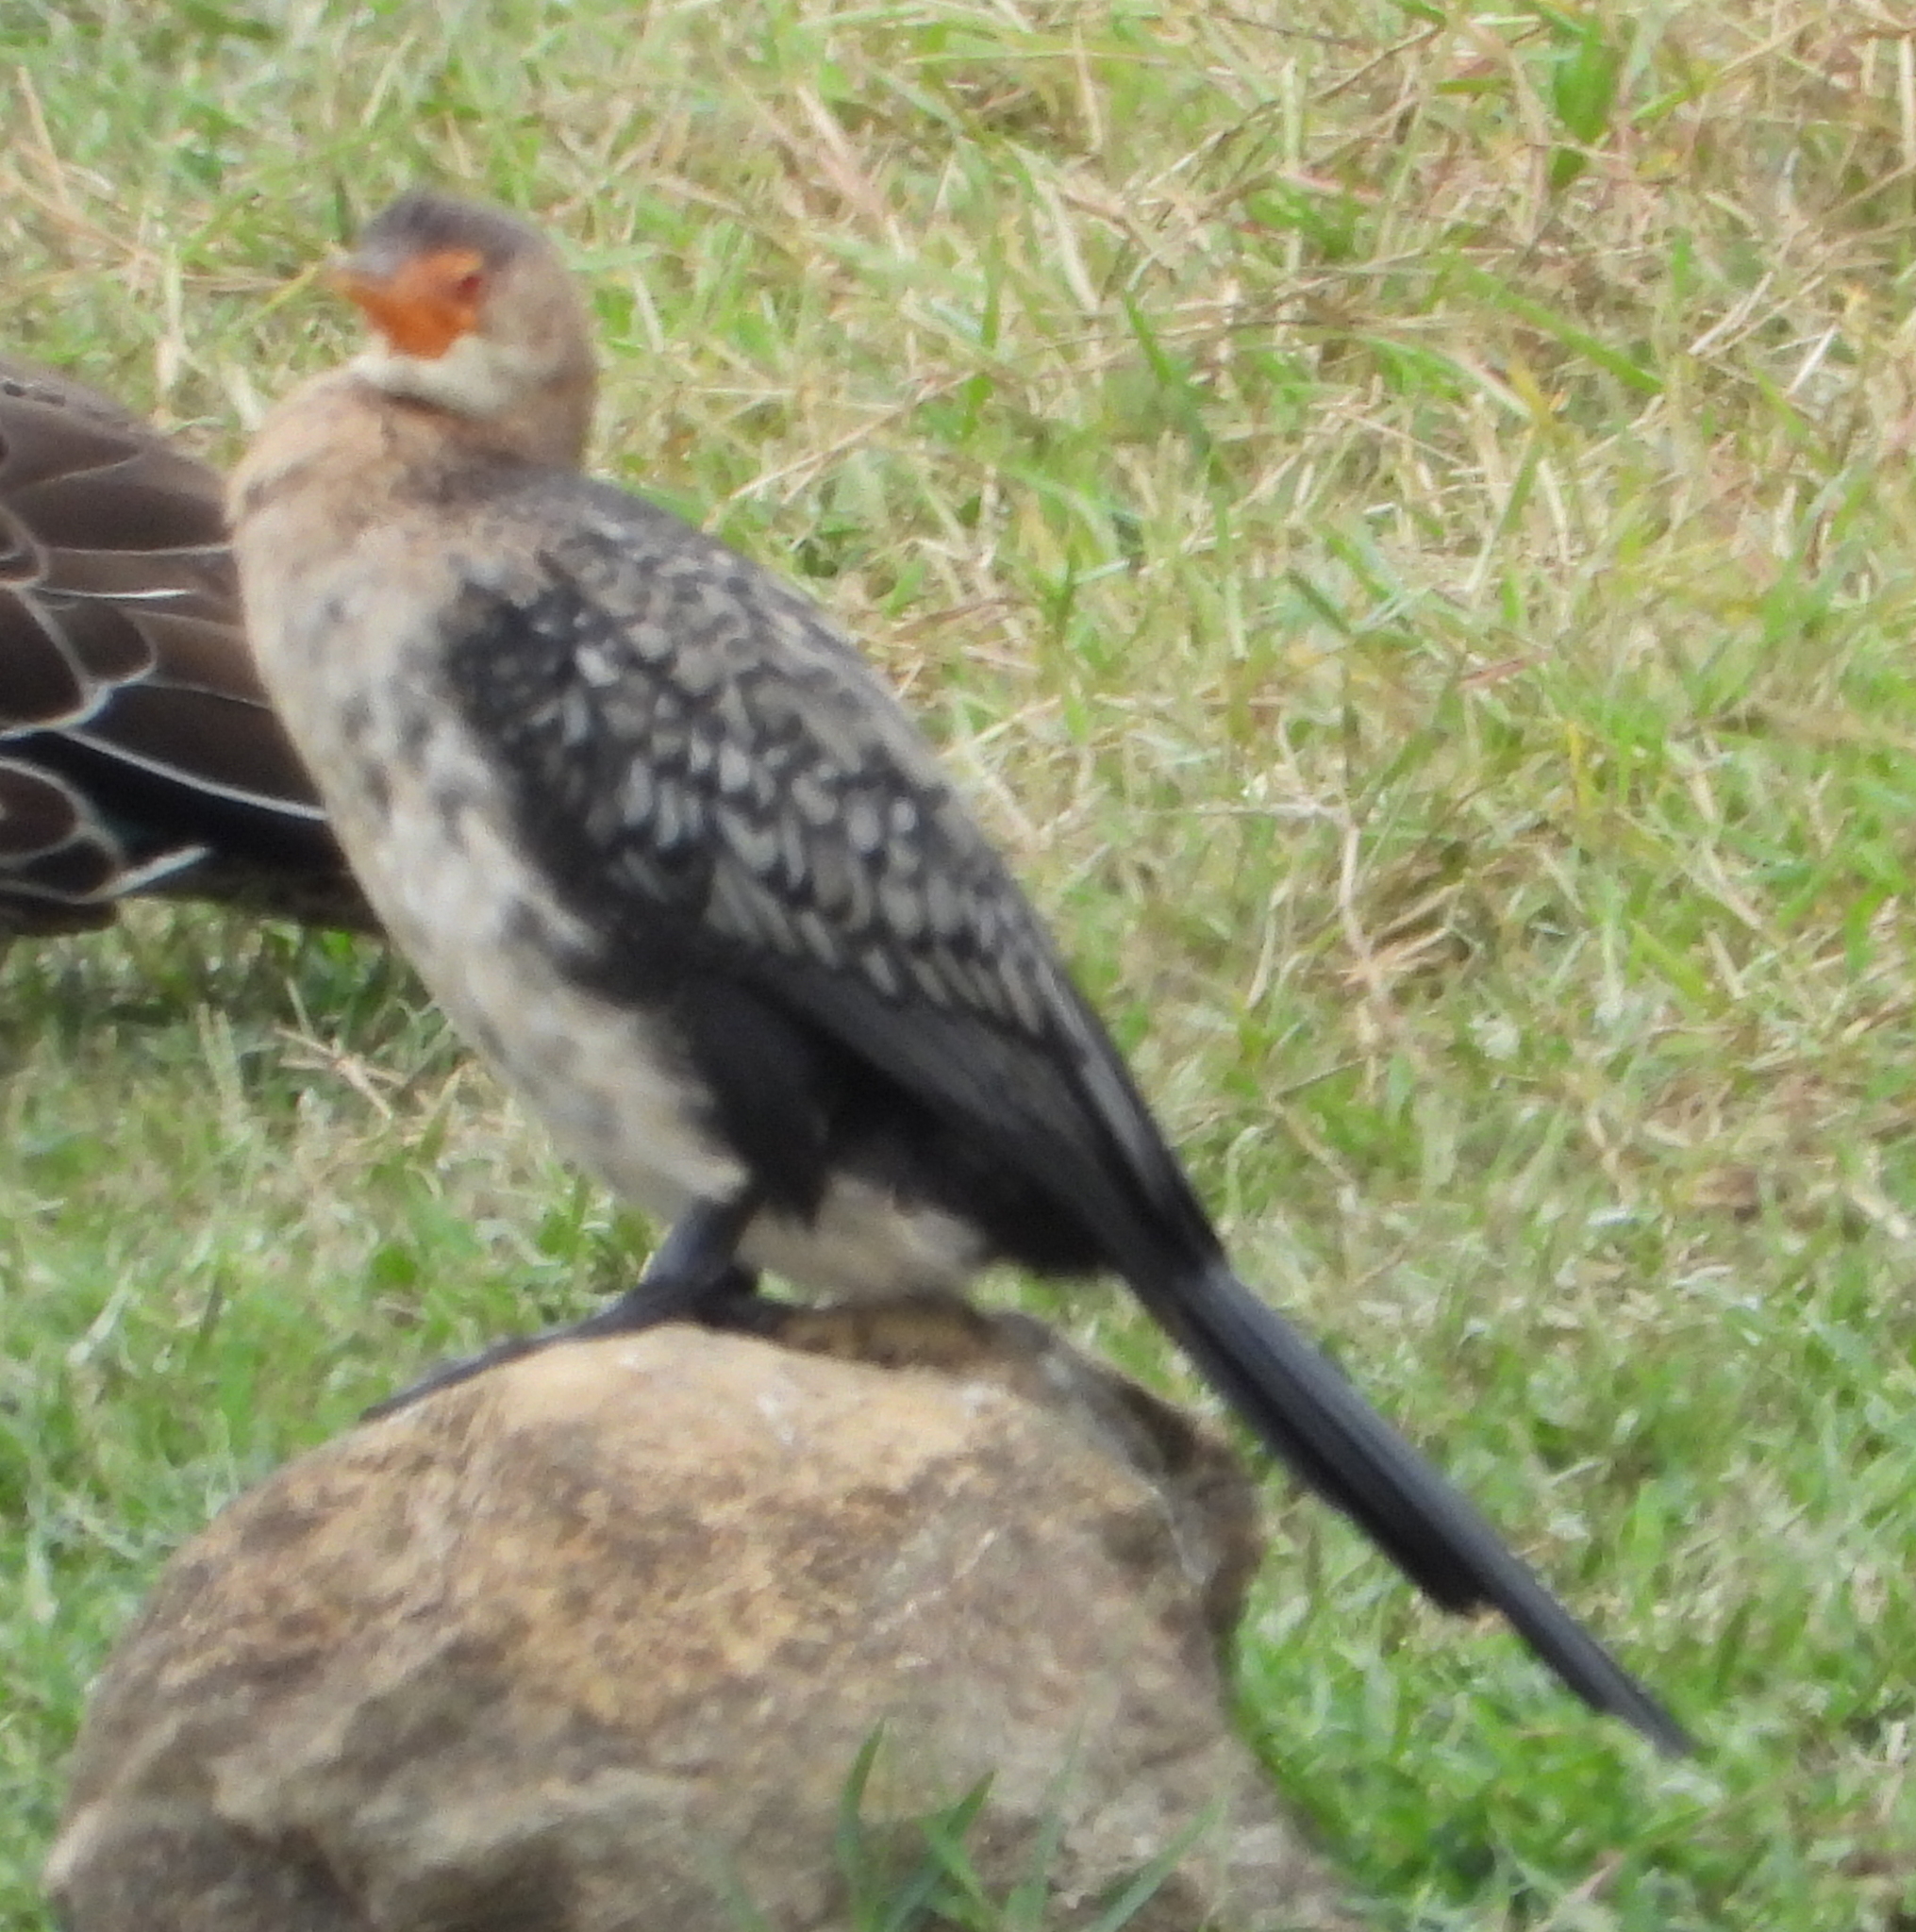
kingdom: Animalia
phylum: Chordata
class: Aves
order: Suliformes
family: Phalacrocoracidae
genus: Microcarbo
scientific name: Microcarbo africanus
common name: Long-tailed cormorant
